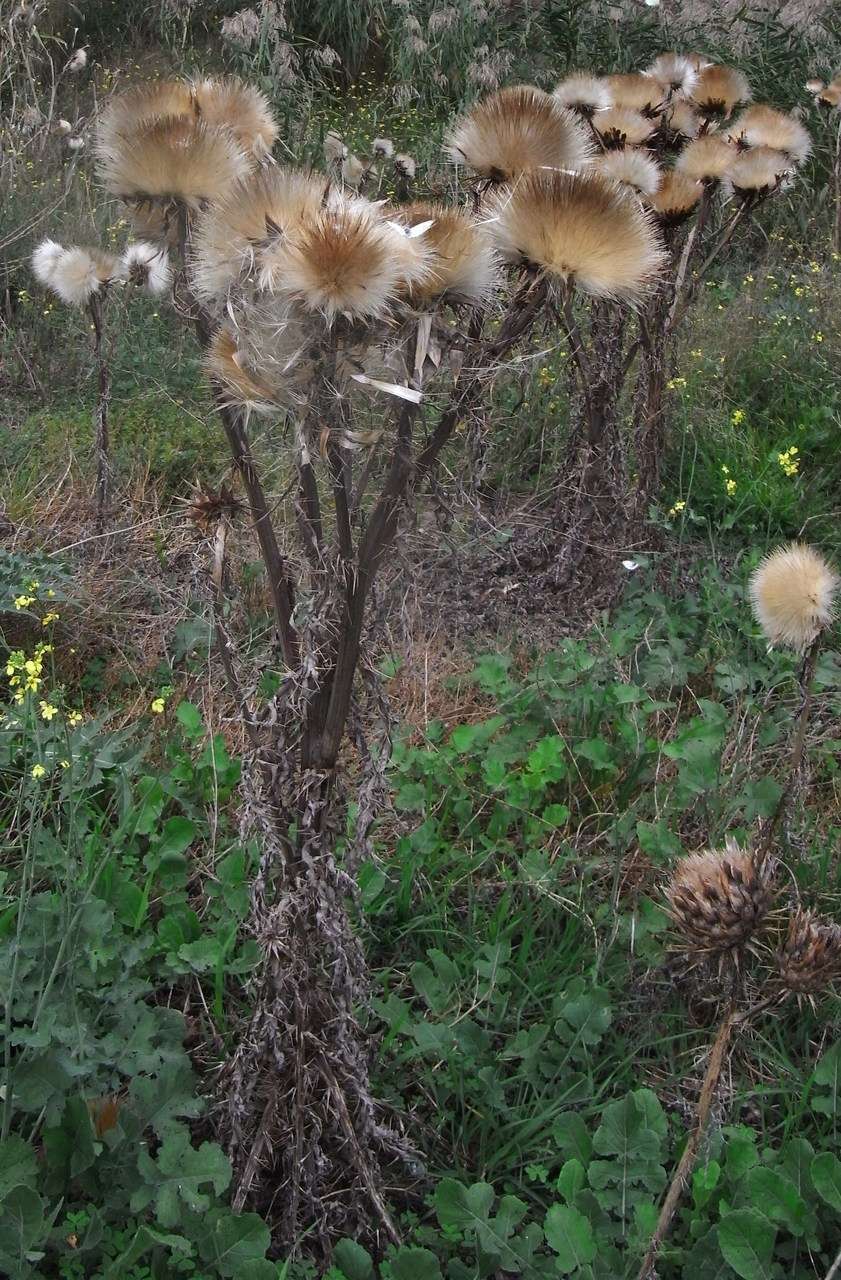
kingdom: Plantae
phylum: Tracheophyta
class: Magnoliopsida
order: Asterales
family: Asteraceae
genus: Cynara
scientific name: Cynara cardunculus
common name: Globe artichoke
